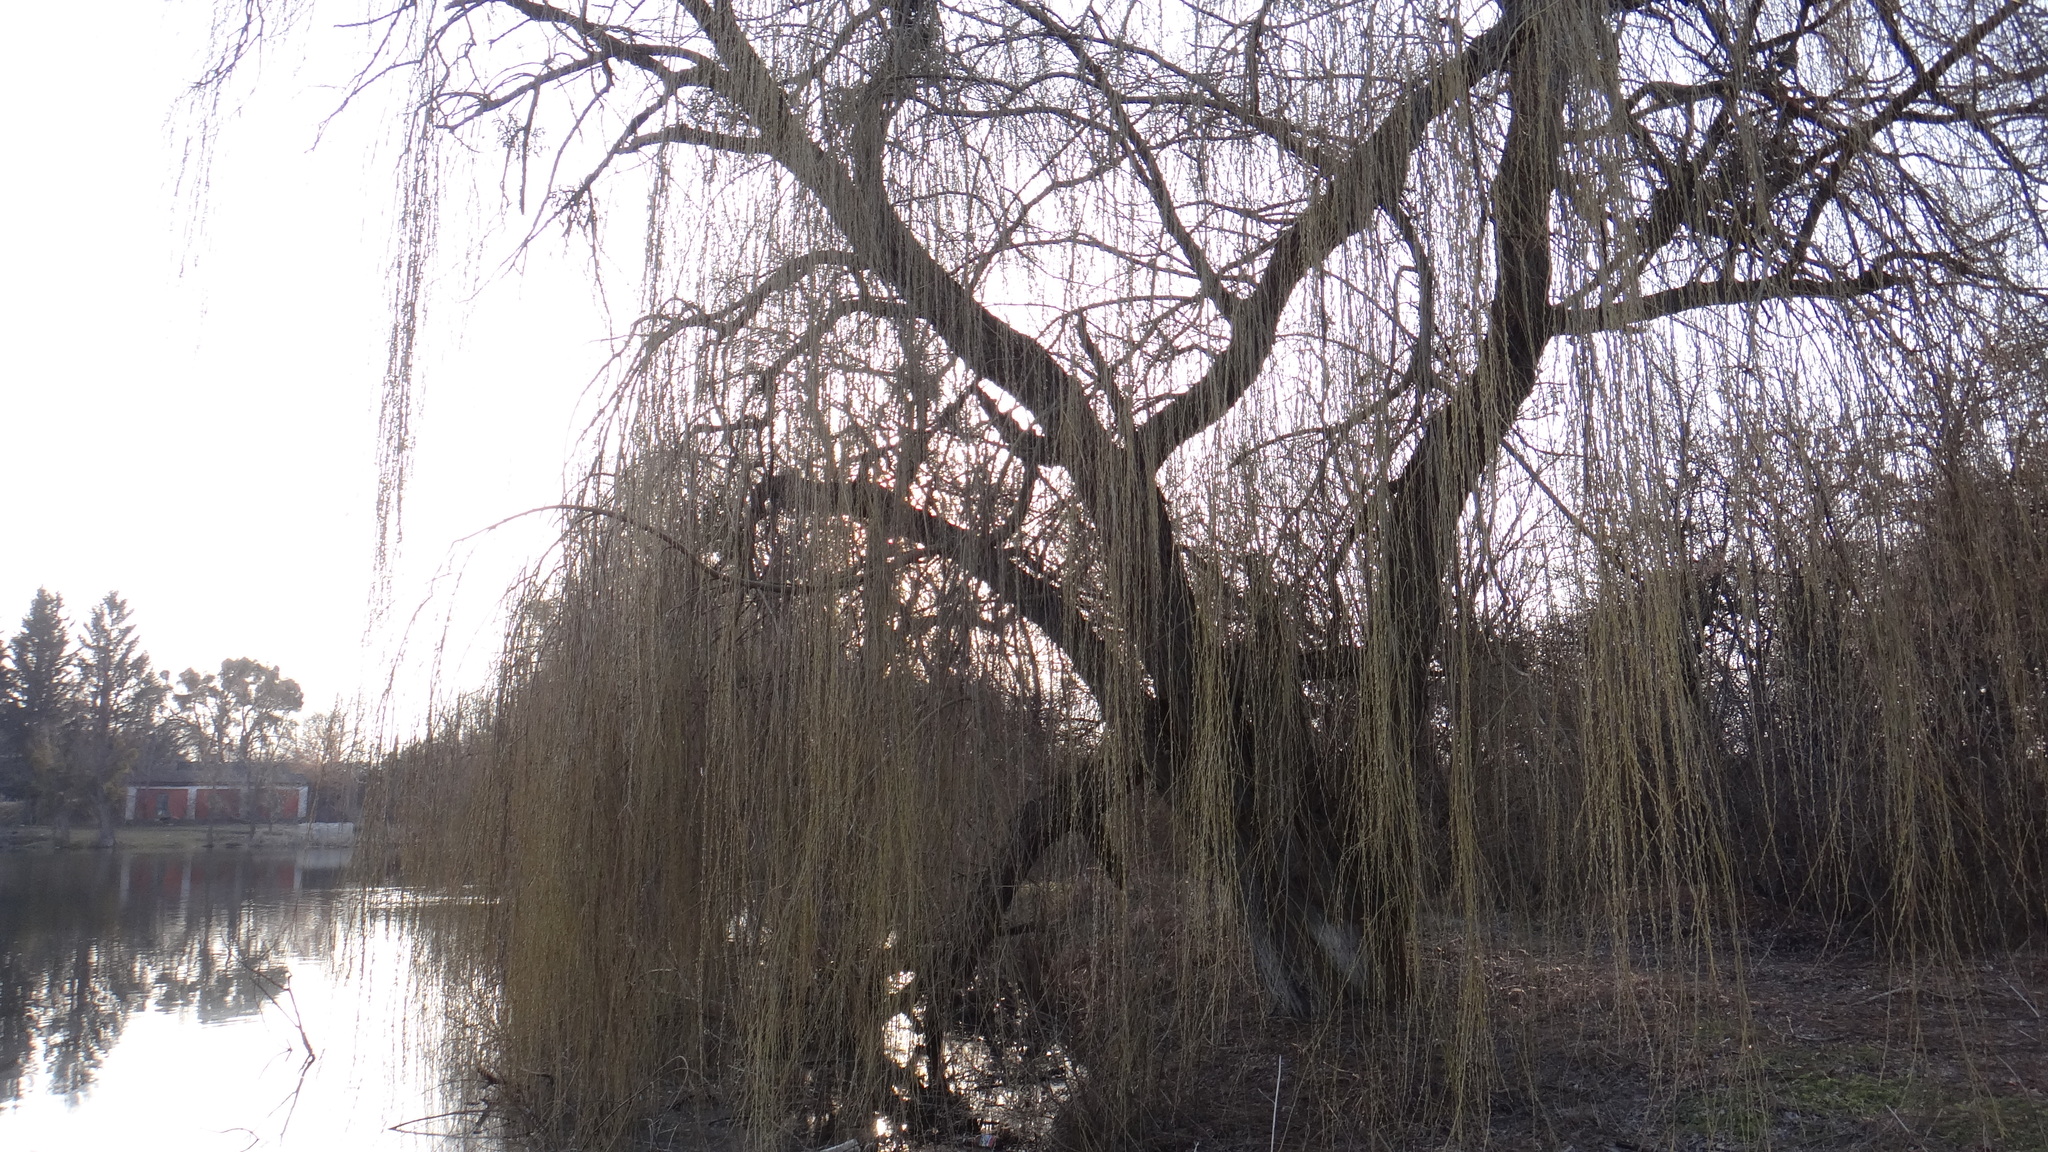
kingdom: Plantae
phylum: Tracheophyta
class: Magnoliopsida
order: Malpighiales
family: Salicaceae
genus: Salix
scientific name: Salix babylonica
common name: Weeping willow
